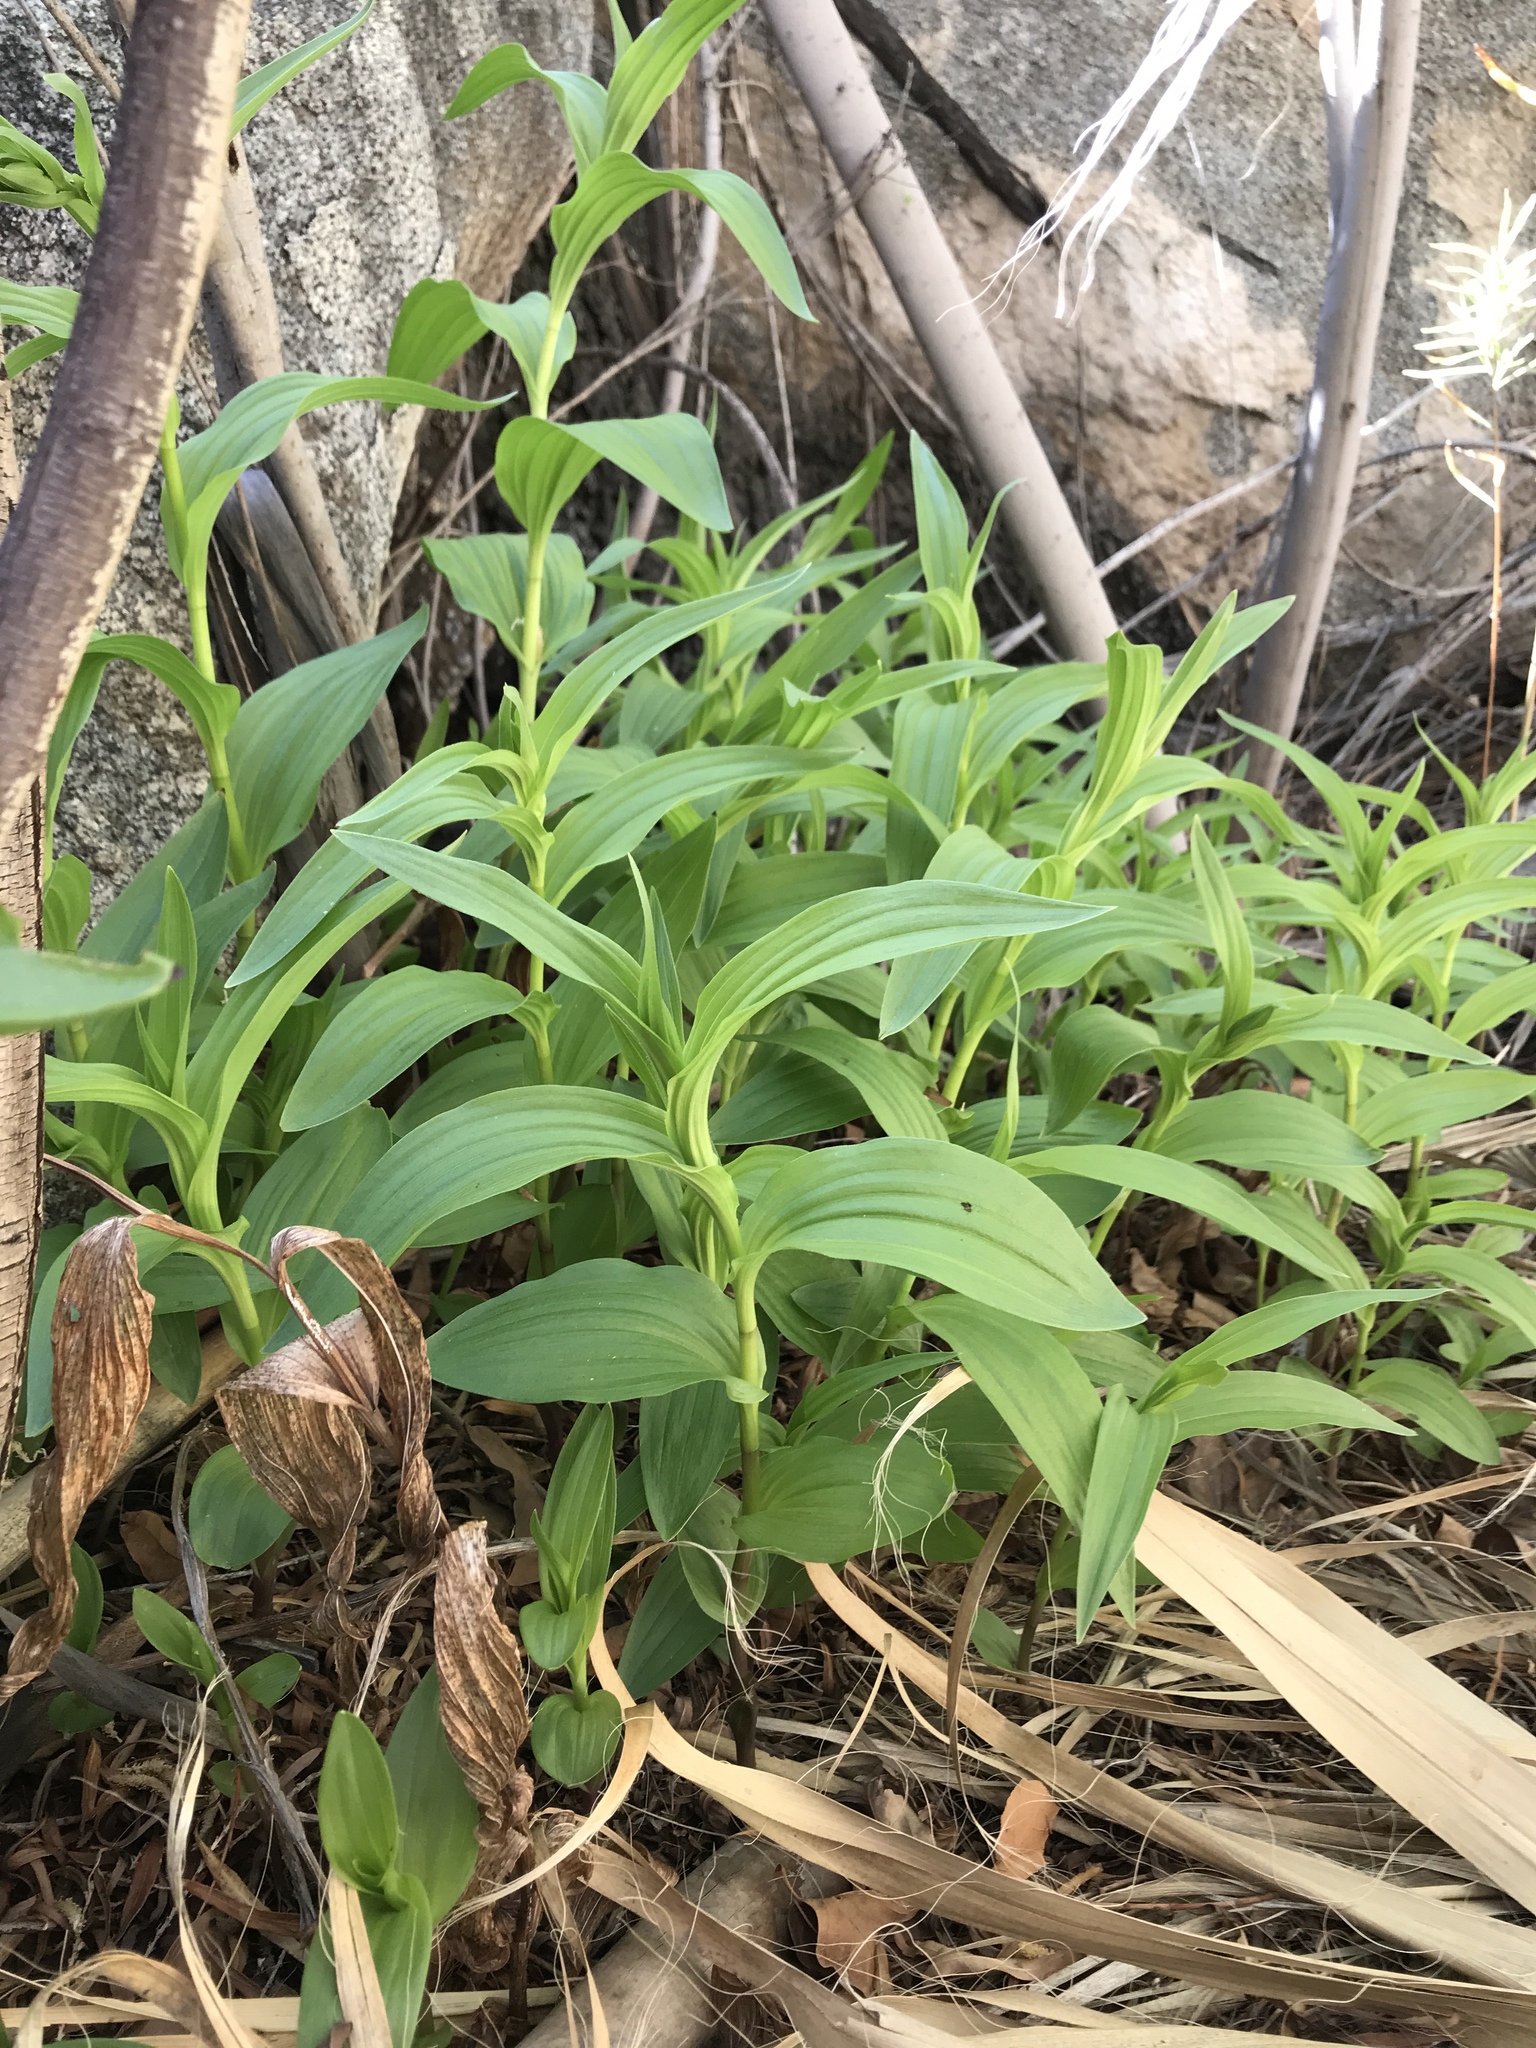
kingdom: Plantae
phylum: Tracheophyta
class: Liliopsida
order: Asparagales
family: Orchidaceae
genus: Epipactis
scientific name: Epipactis gigantea
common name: Chatterbox
